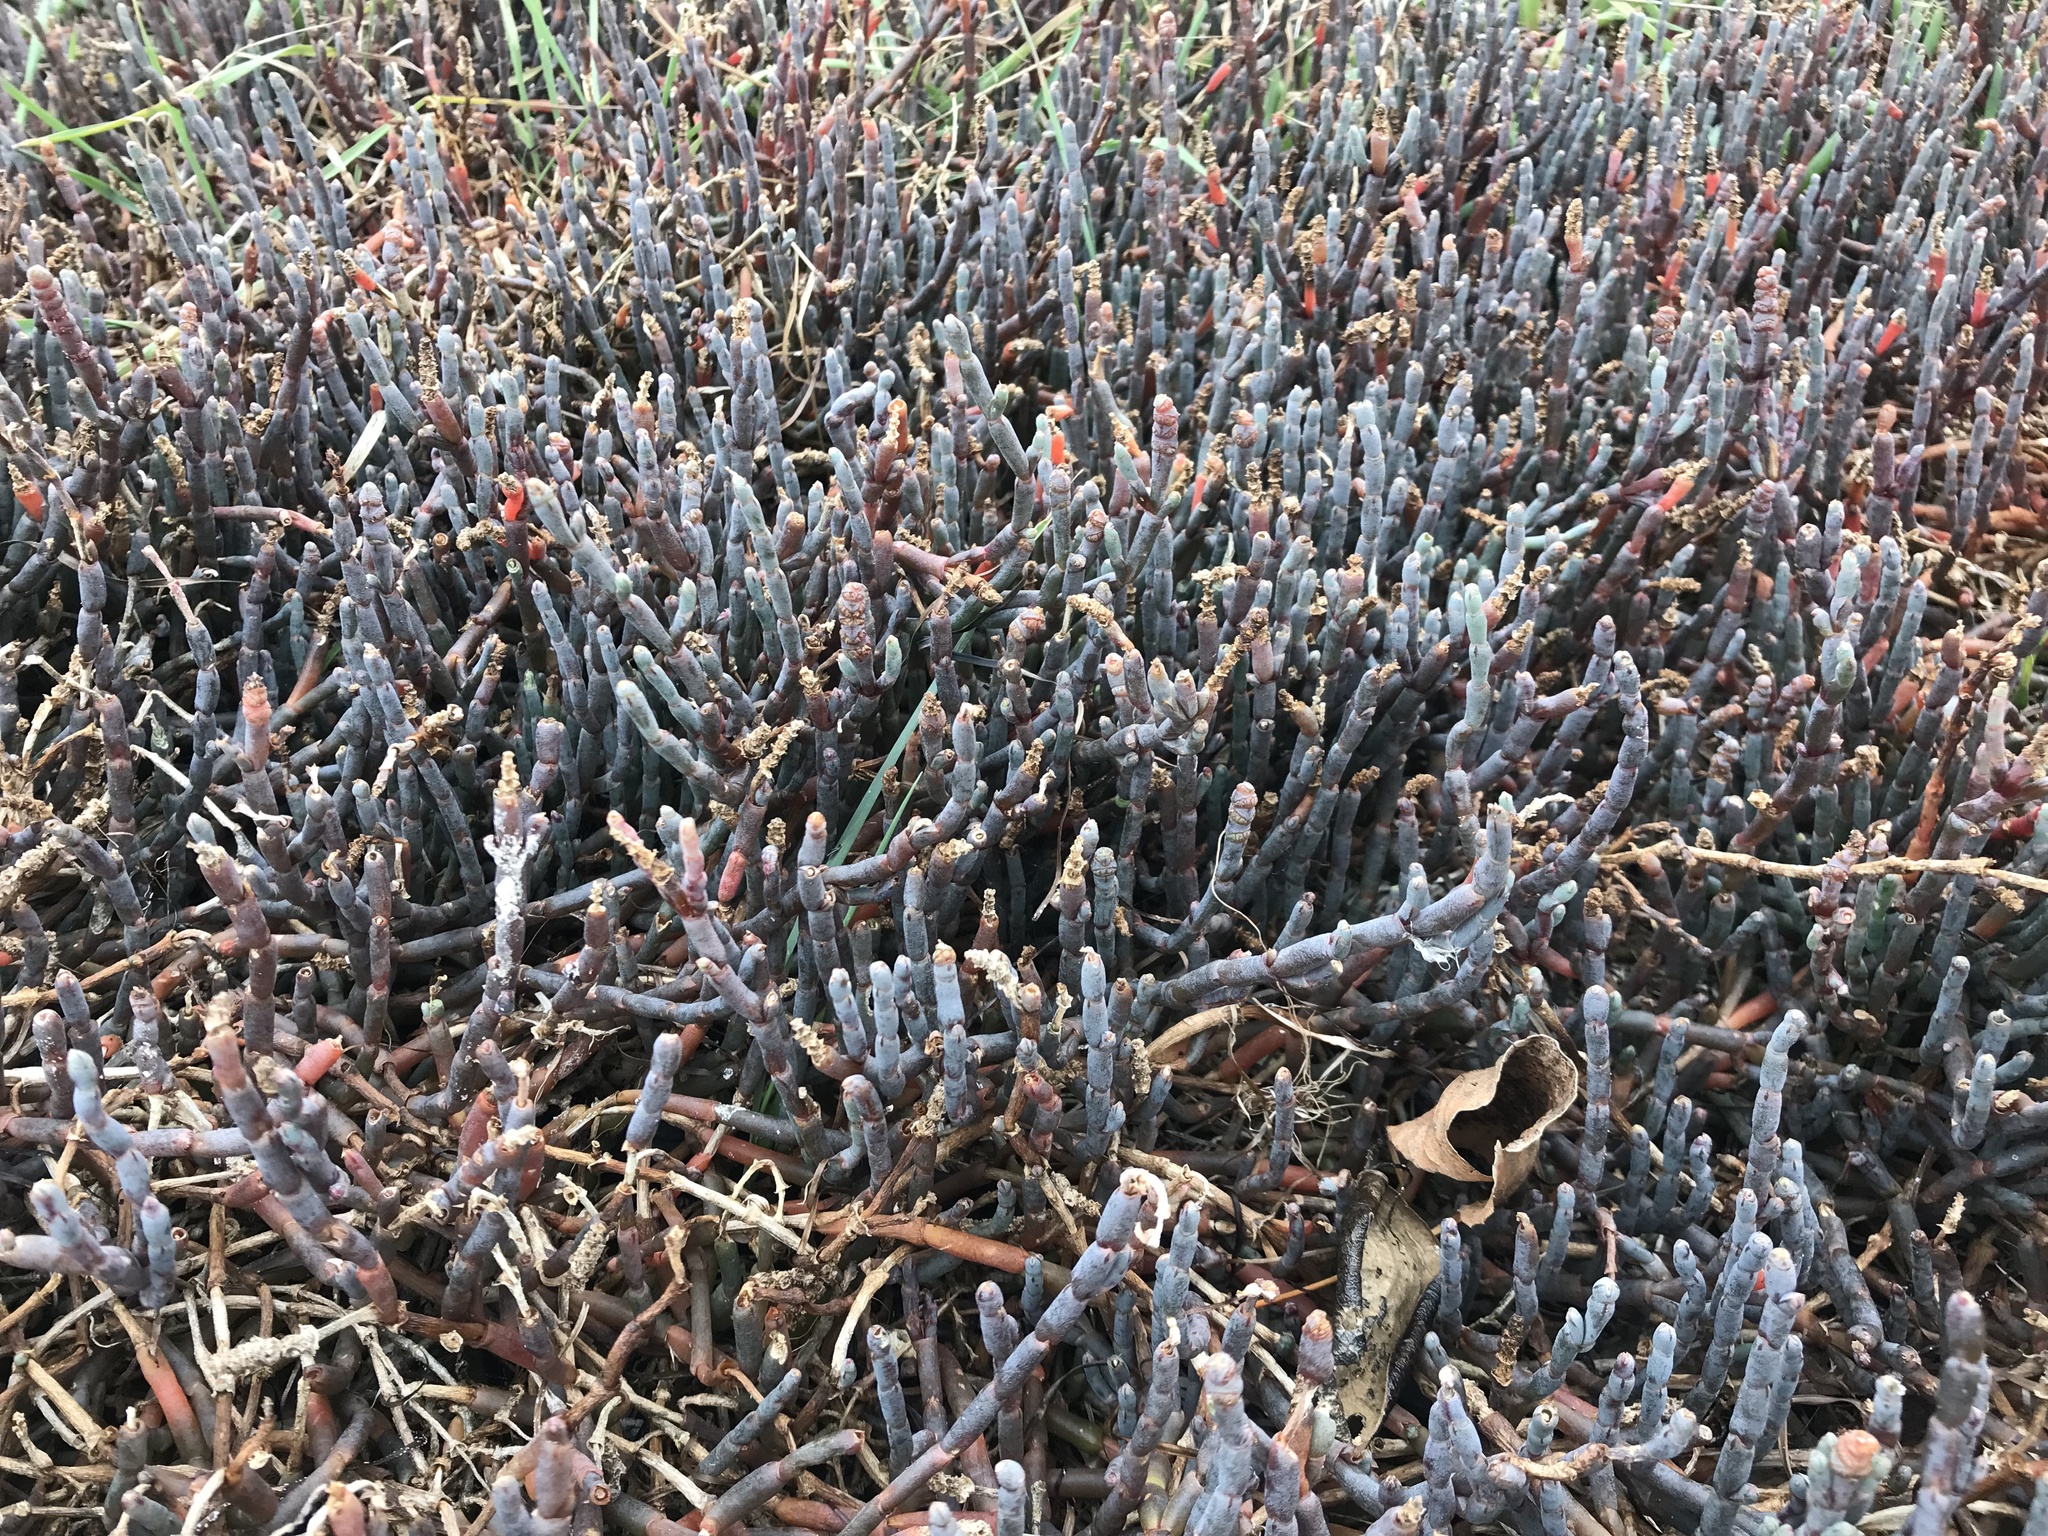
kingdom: Plantae
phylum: Tracheophyta
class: Magnoliopsida
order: Caryophyllales
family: Amaranthaceae
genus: Salicornia
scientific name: Salicornia quinqueflora
